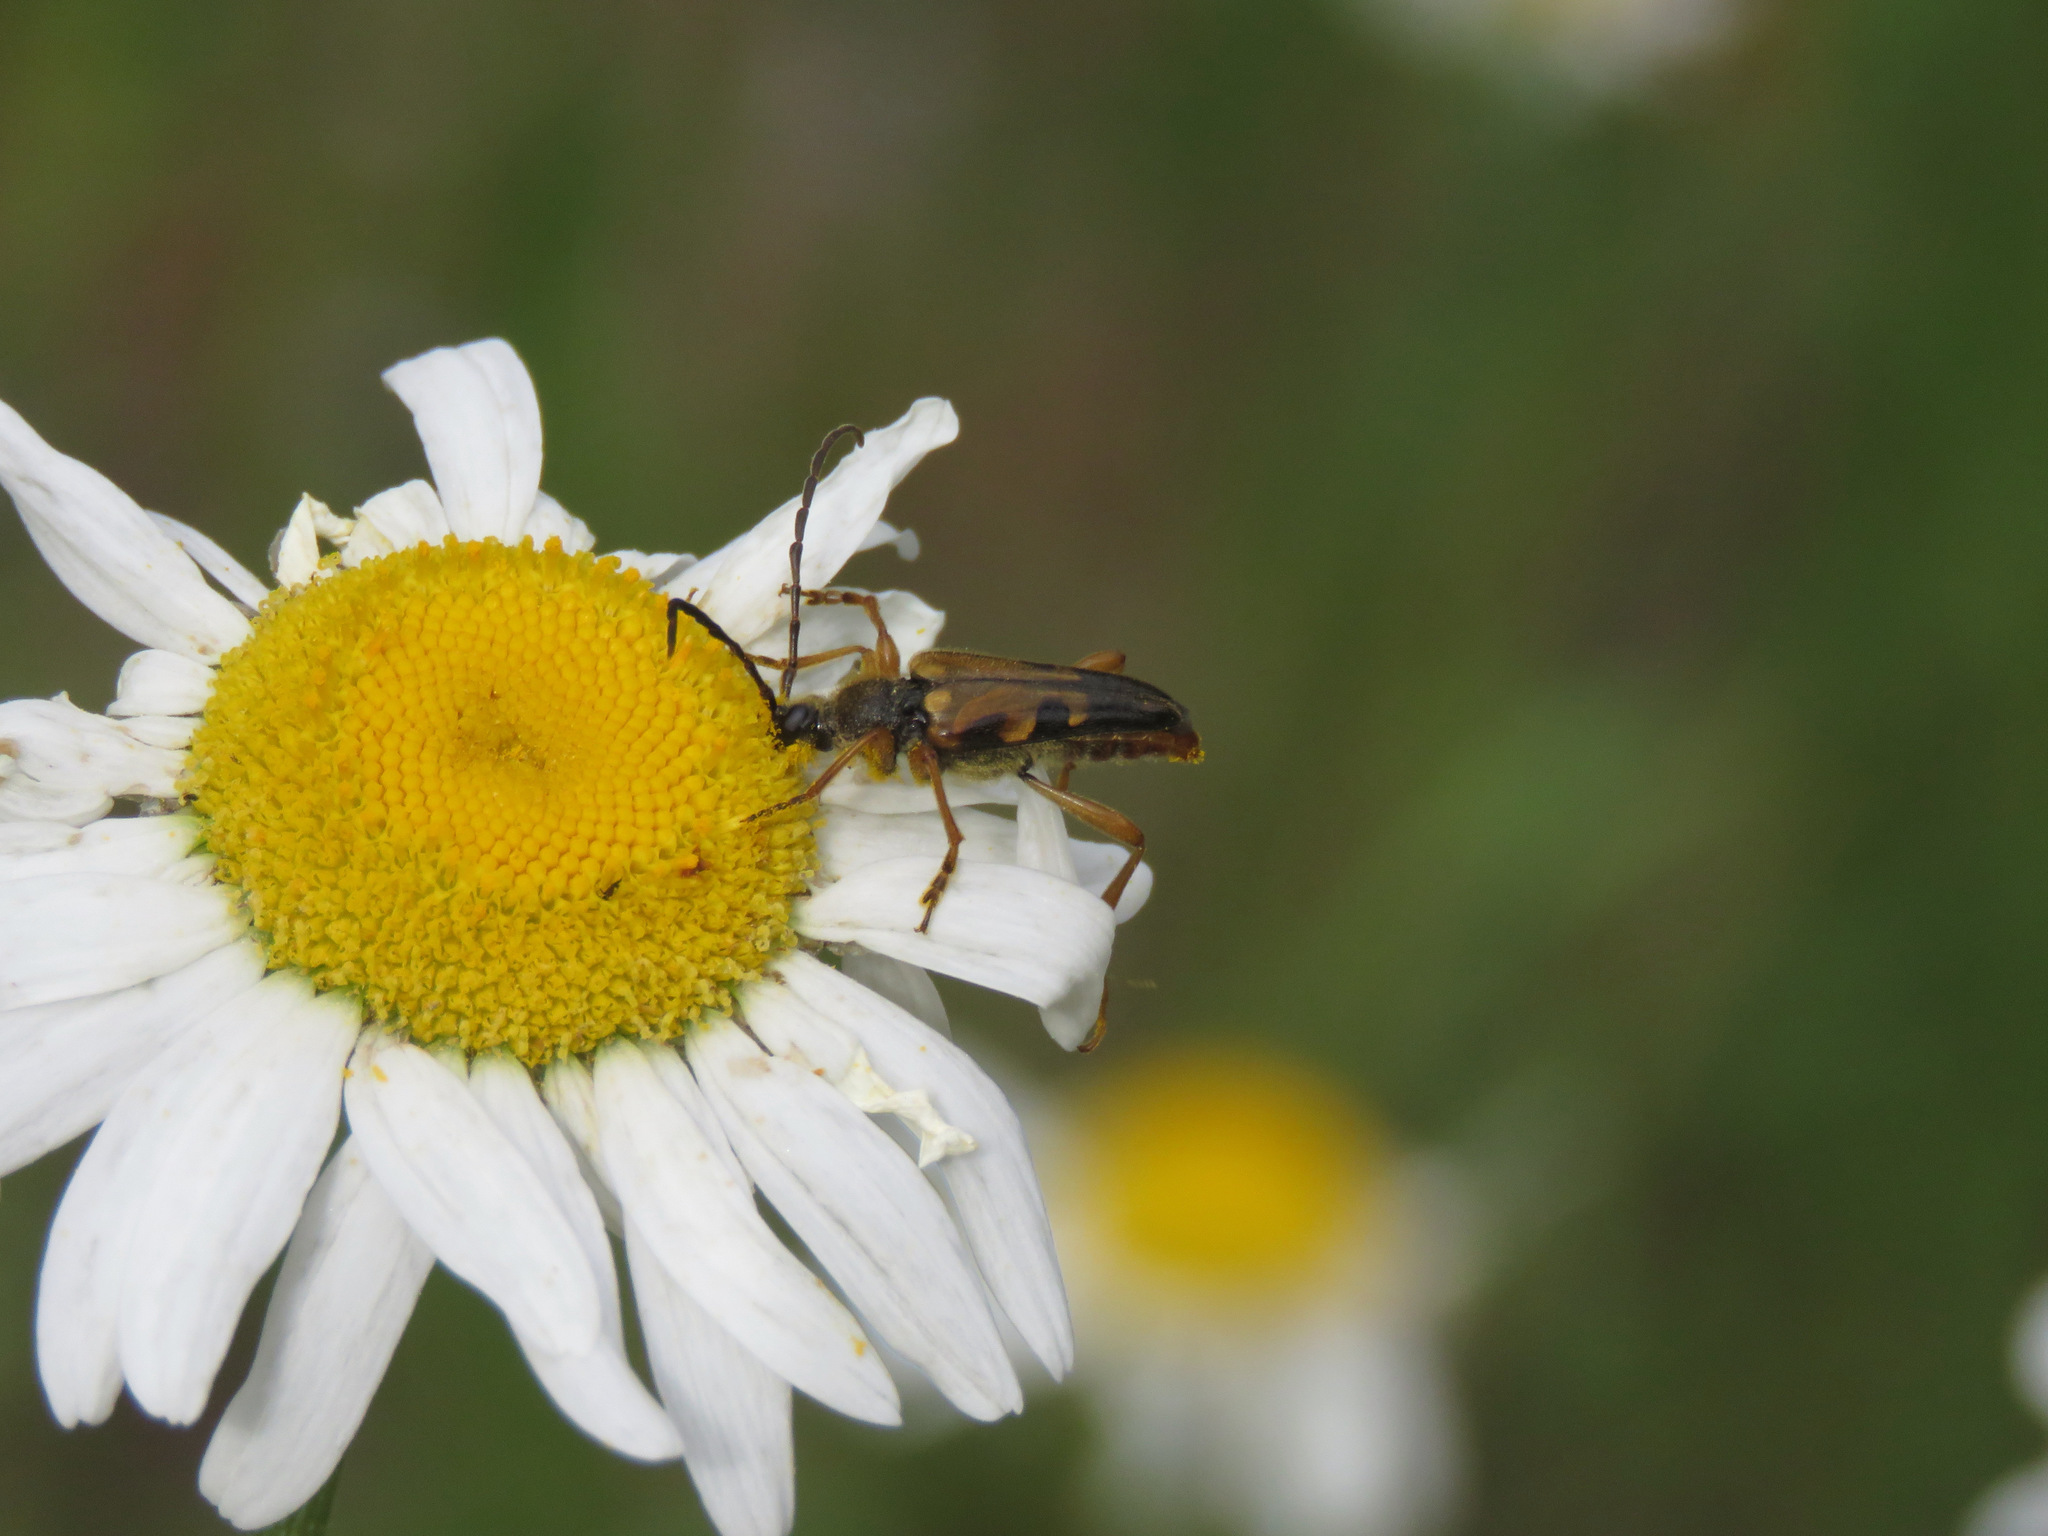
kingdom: Animalia
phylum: Arthropoda
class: Insecta
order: Coleoptera
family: Cerambycidae
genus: Xestoleptura
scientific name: Xestoleptura crassipes
